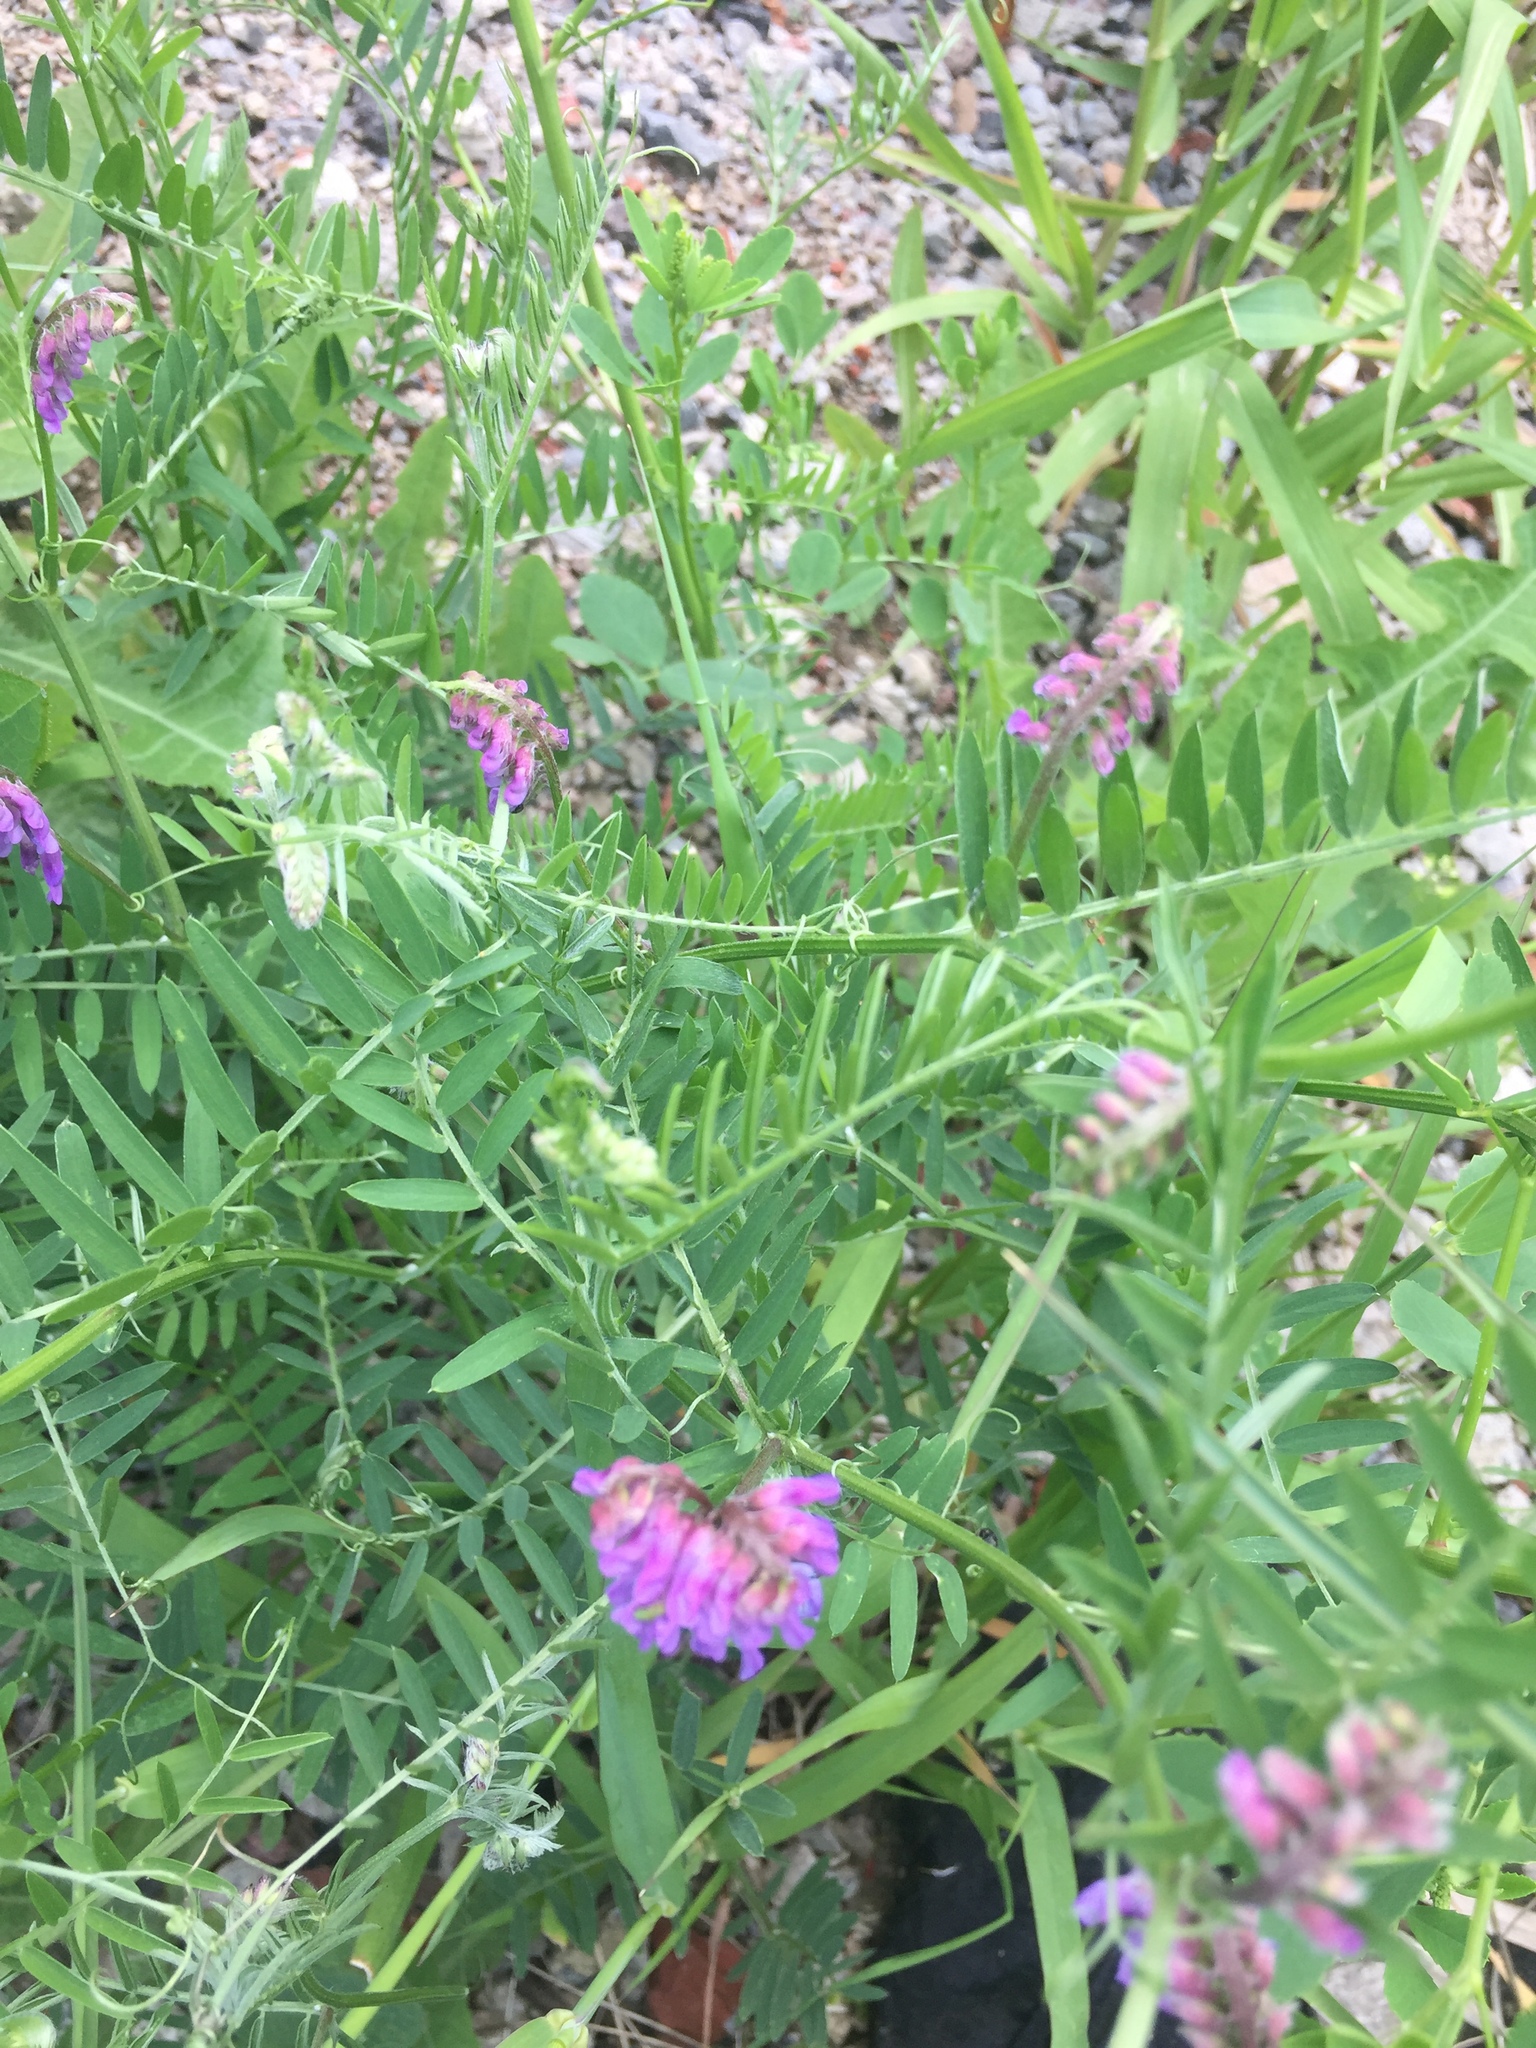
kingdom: Plantae
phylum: Tracheophyta
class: Magnoliopsida
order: Fabales
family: Fabaceae
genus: Vicia
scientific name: Vicia cracca
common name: Bird vetch
